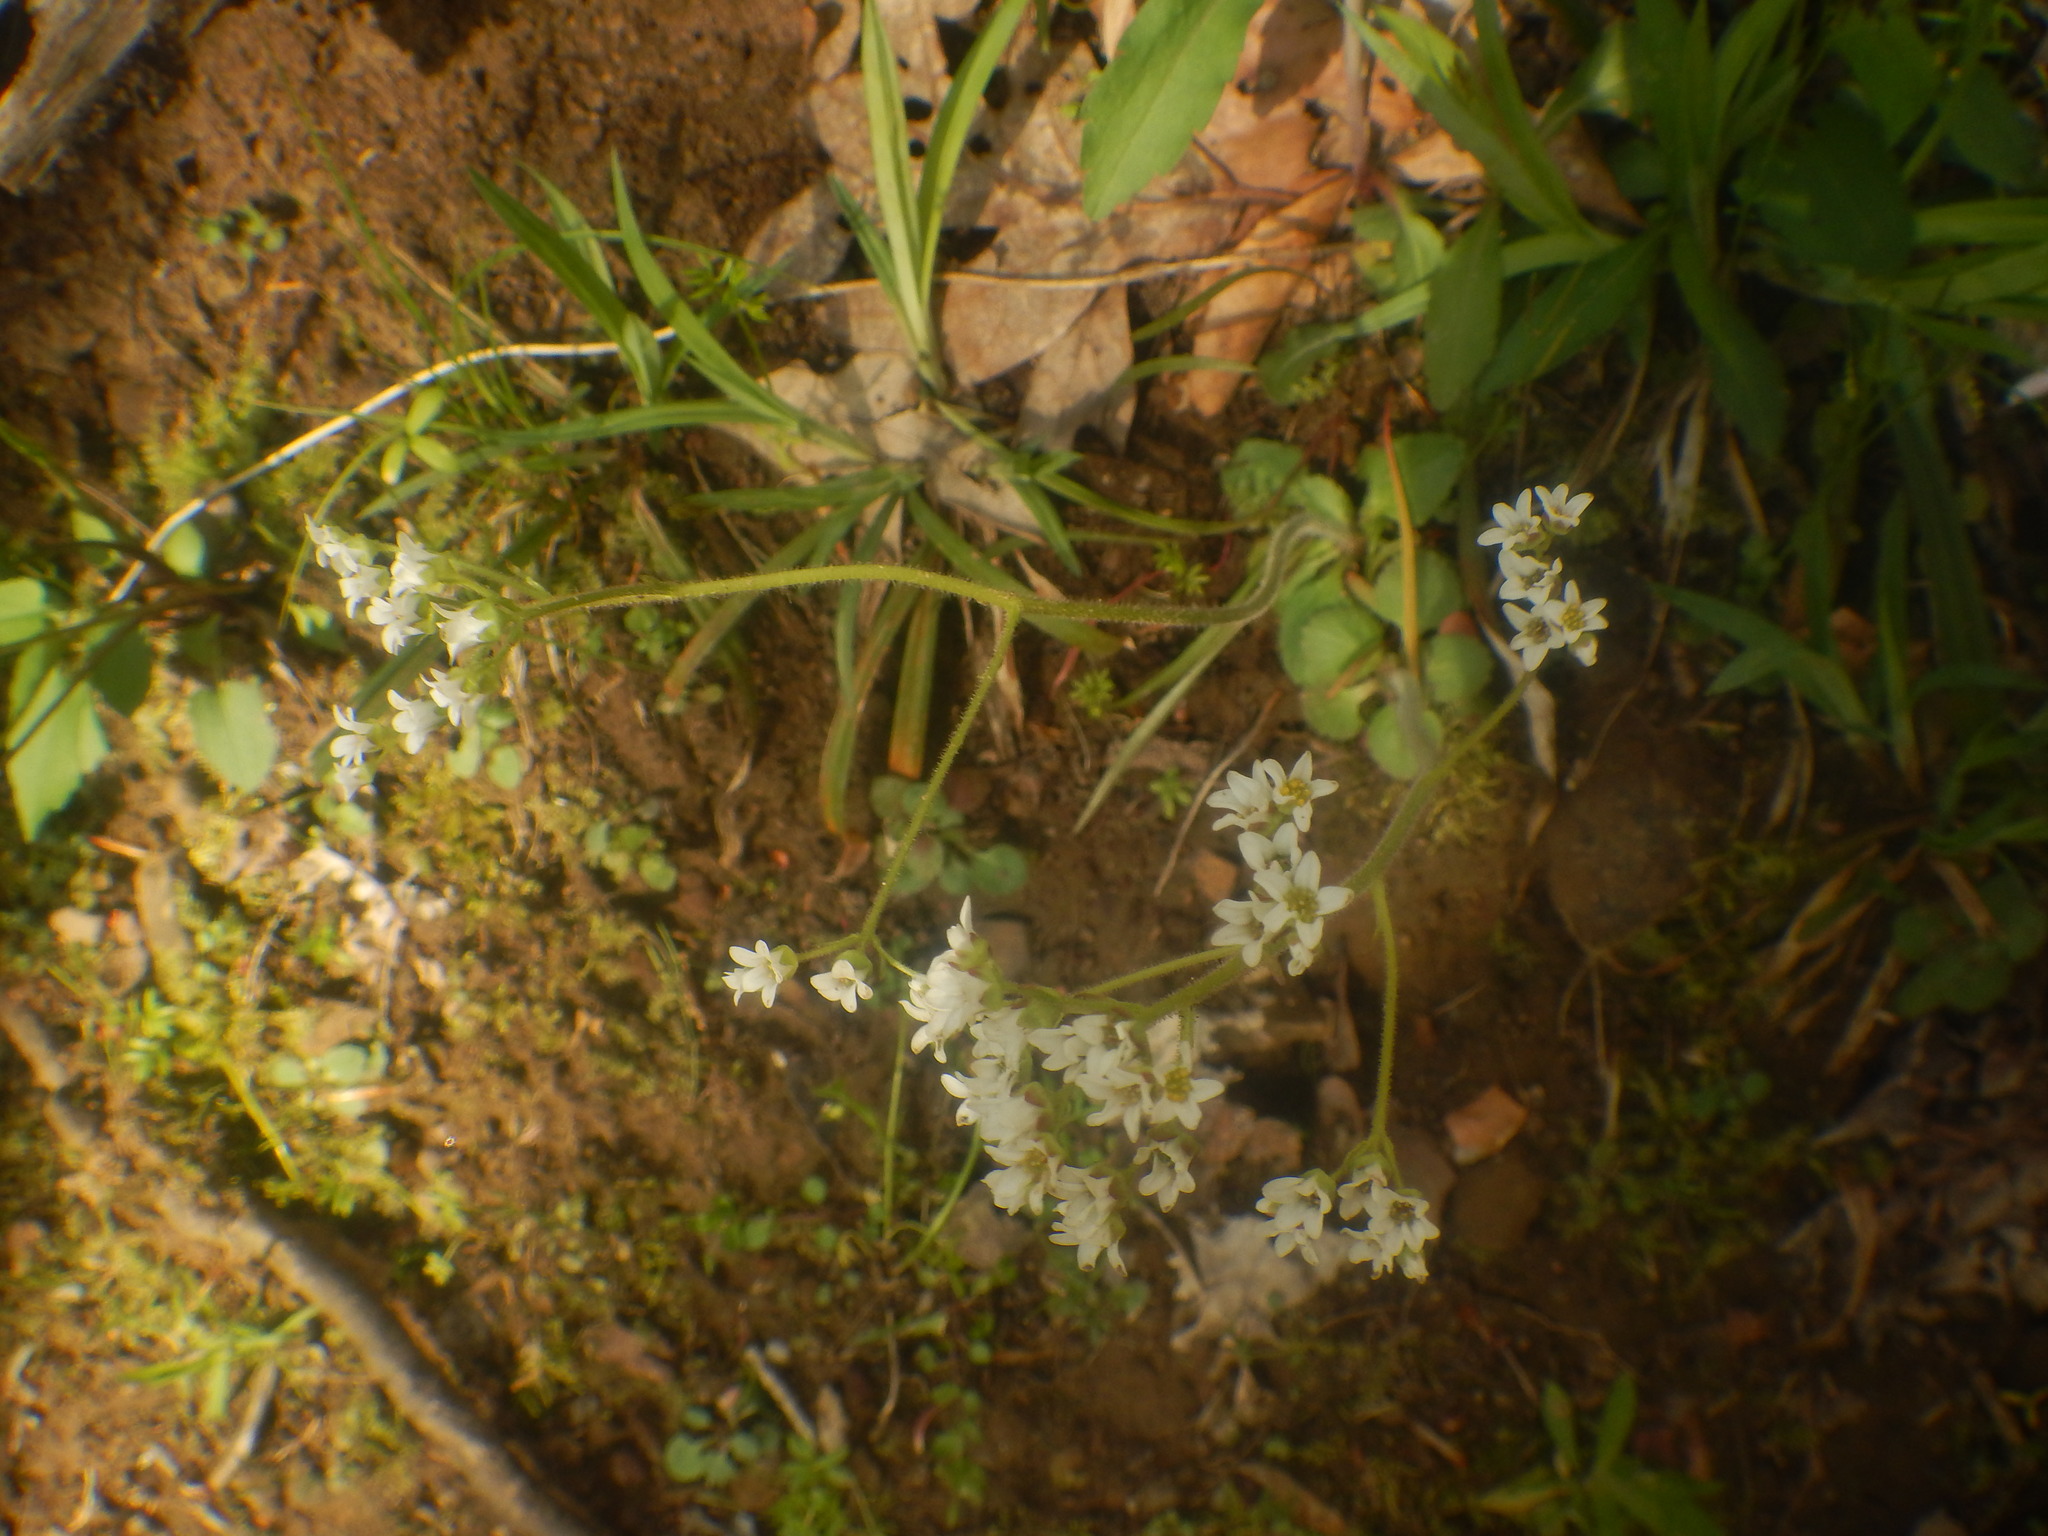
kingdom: Plantae
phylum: Tracheophyta
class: Magnoliopsida
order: Saxifragales
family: Saxifragaceae
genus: Micranthes
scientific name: Micranthes virginiensis
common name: Early saxifrage
